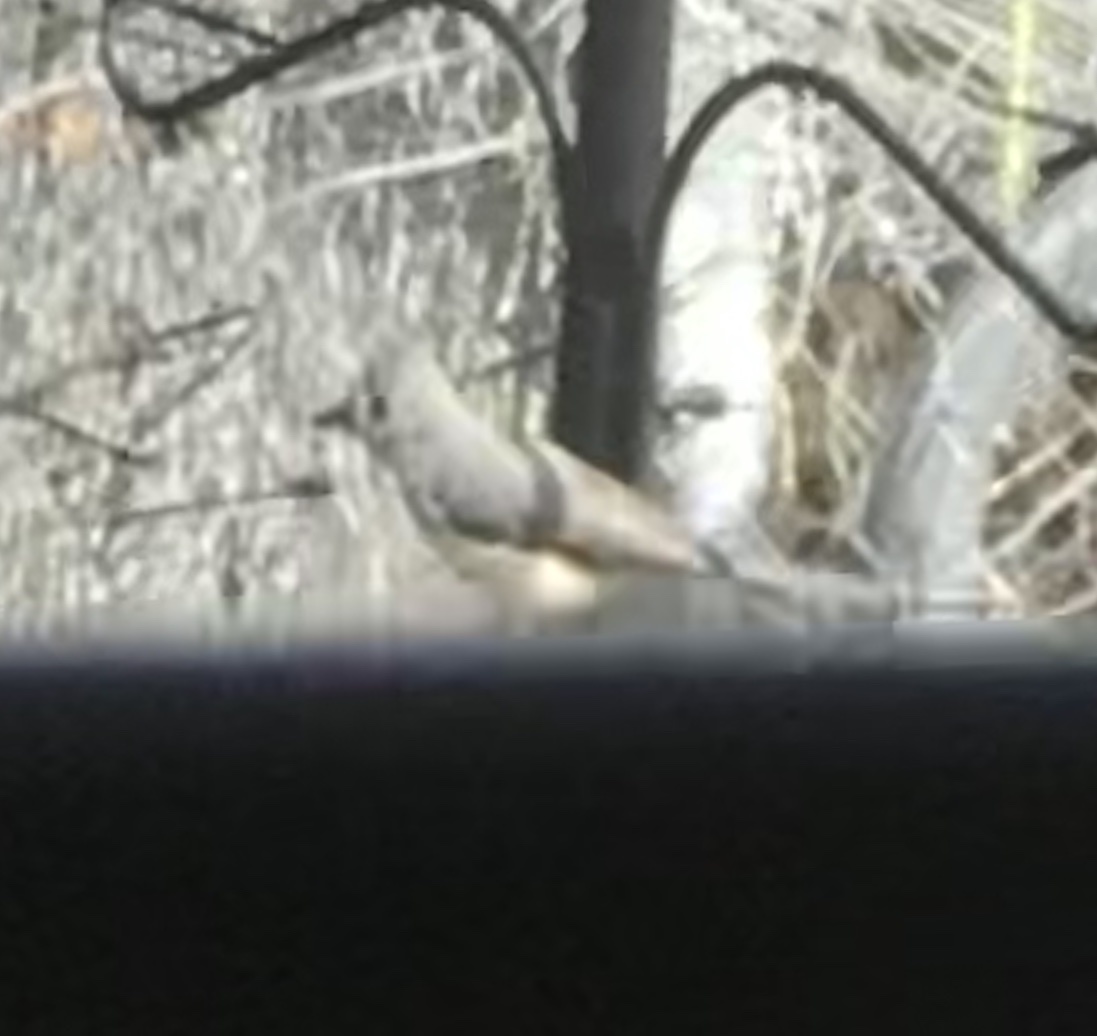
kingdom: Animalia
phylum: Chordata
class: Aves
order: Passeriformes
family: Paridae
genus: Baeolophus
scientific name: Baeolophus bicolor
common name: Tufted titmouse
